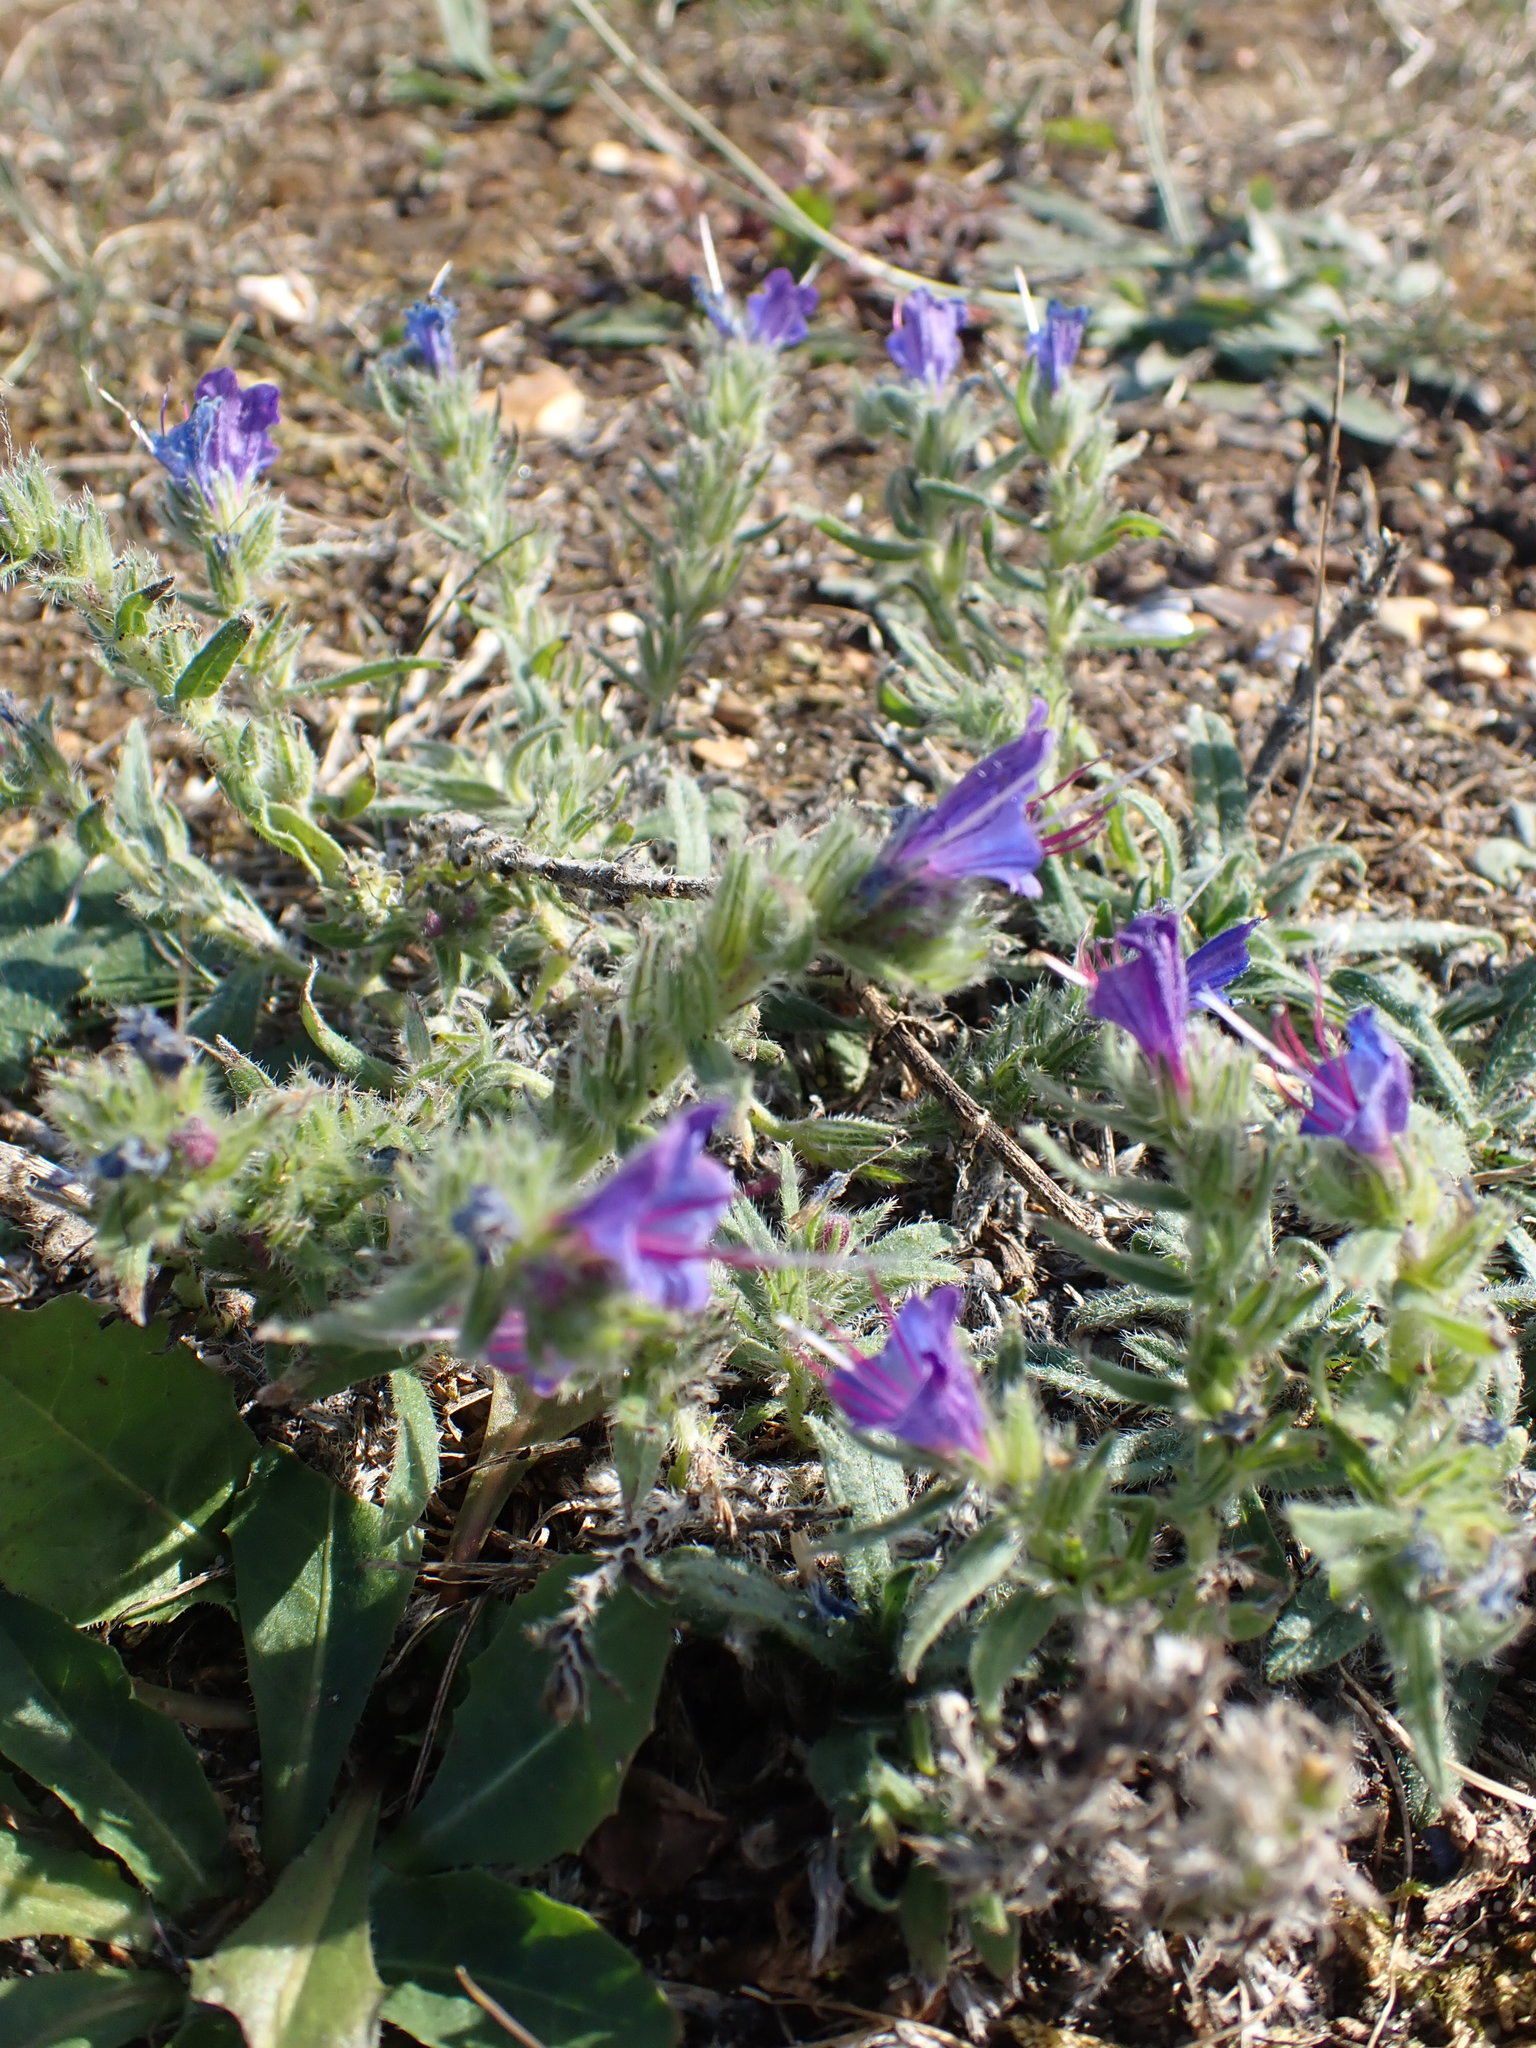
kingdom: Plantae
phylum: Tracheophyta
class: Magnoliopsida
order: Boraginales
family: Boraginaceae
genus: Echium
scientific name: Echium vulgare
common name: Common viper's bugloss
